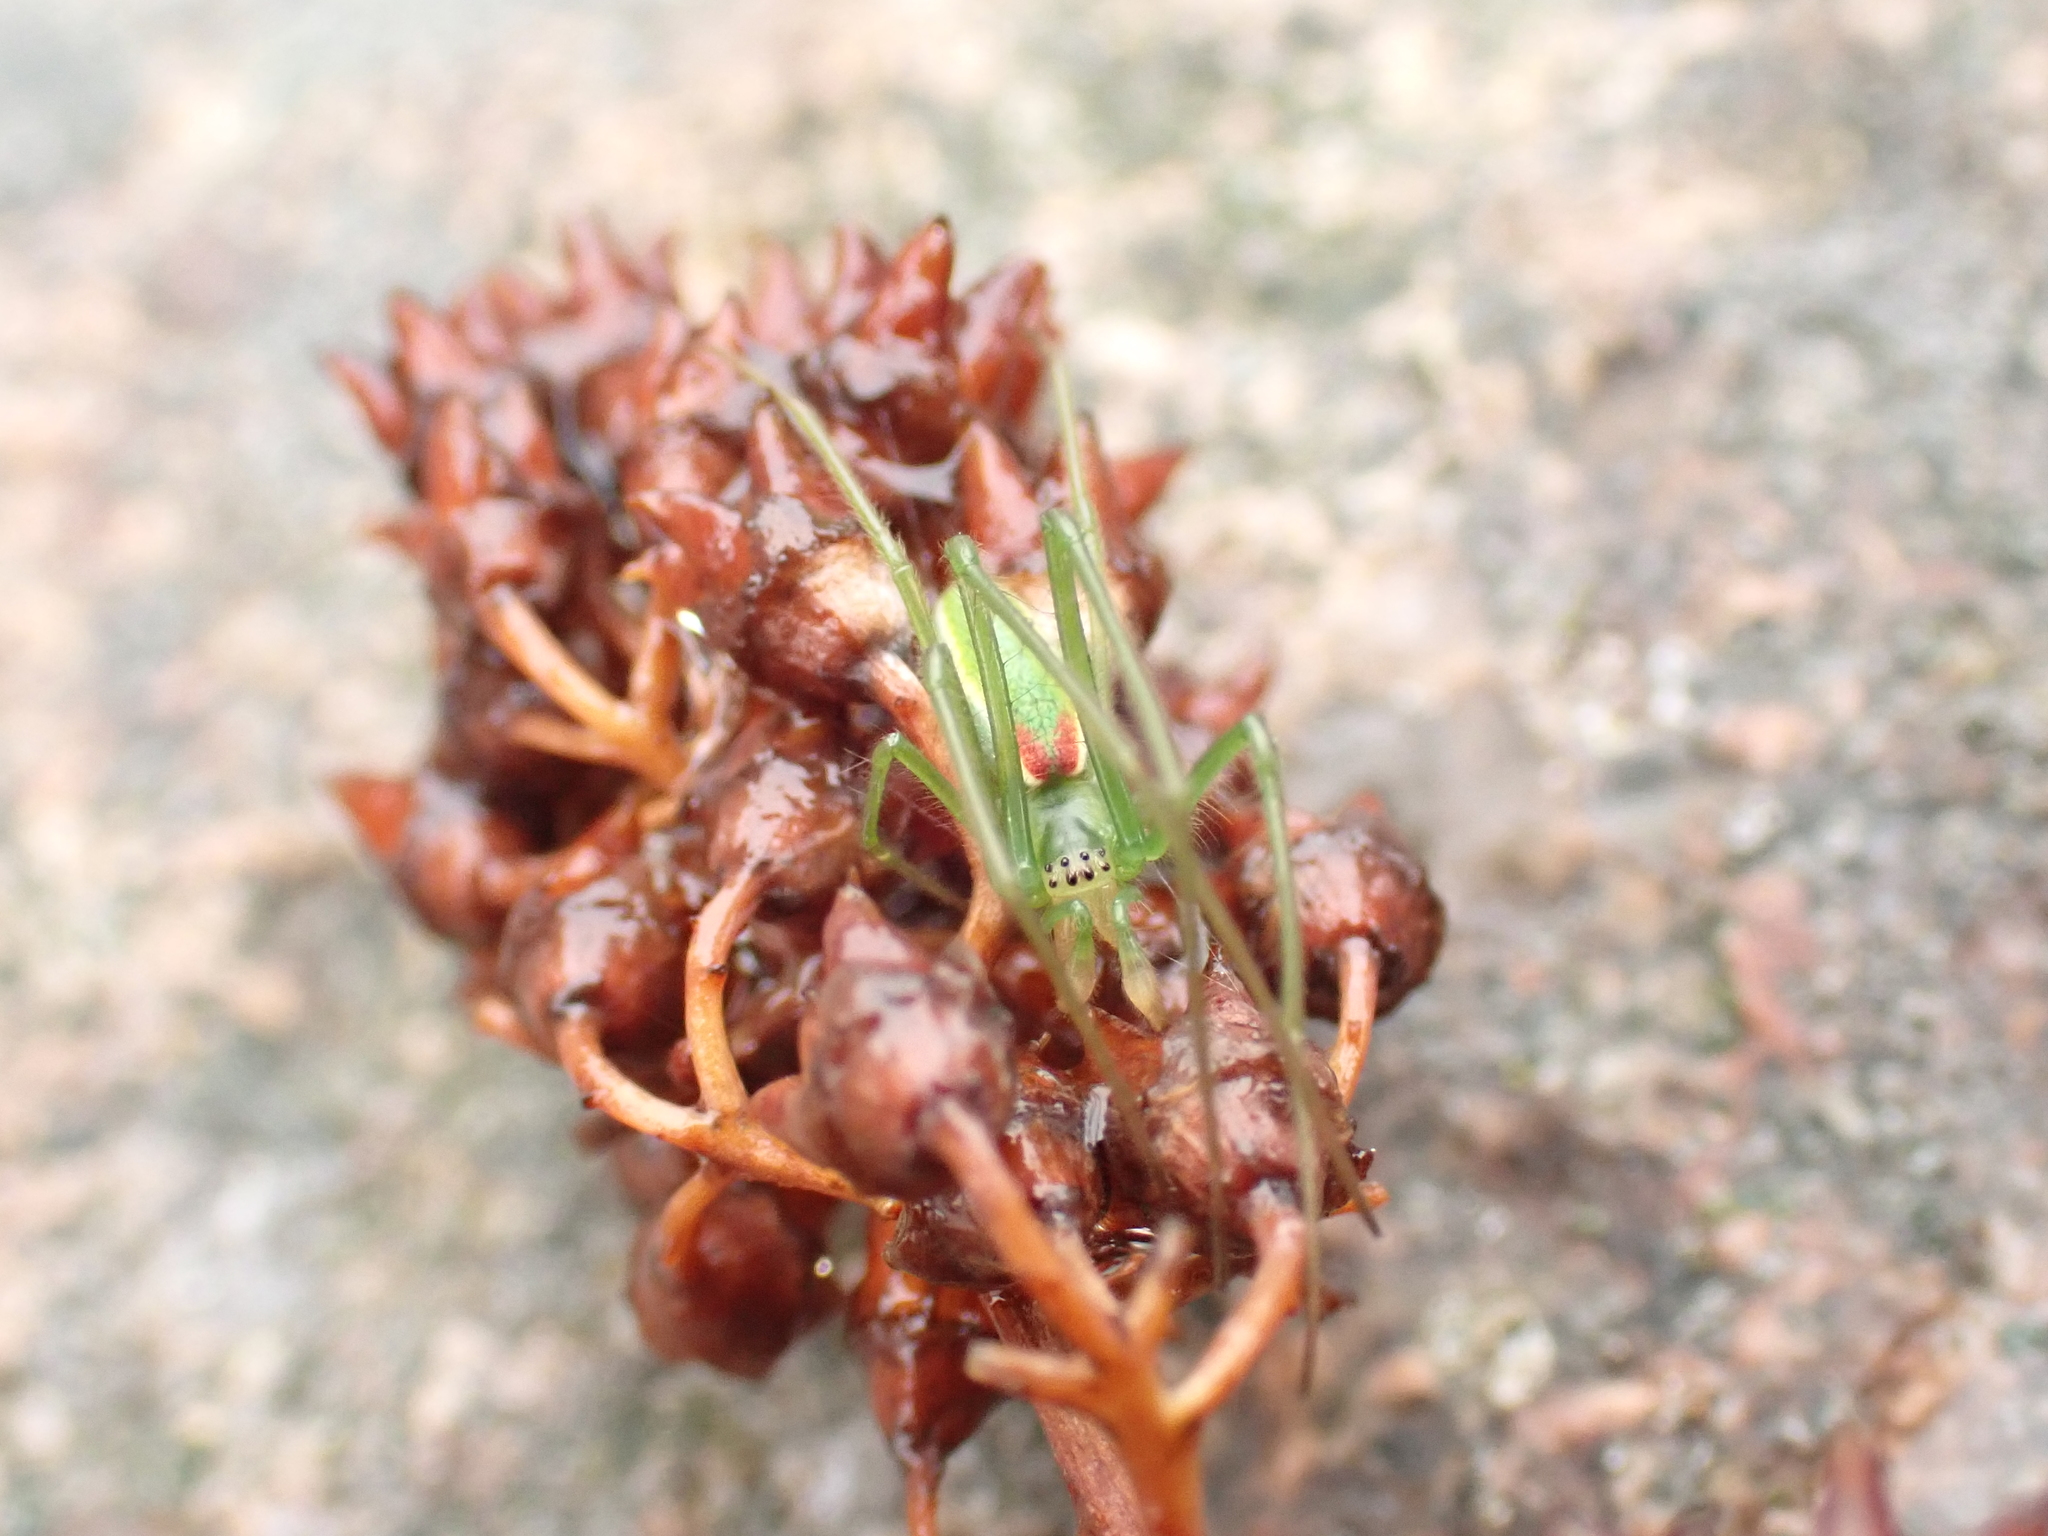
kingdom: Animalia
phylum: Arthropoda
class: Arachnida
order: Araneae
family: Tetragnathidae
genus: Tetragnatha
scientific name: Tetragnatha viridis
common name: Green long-jawed spider
